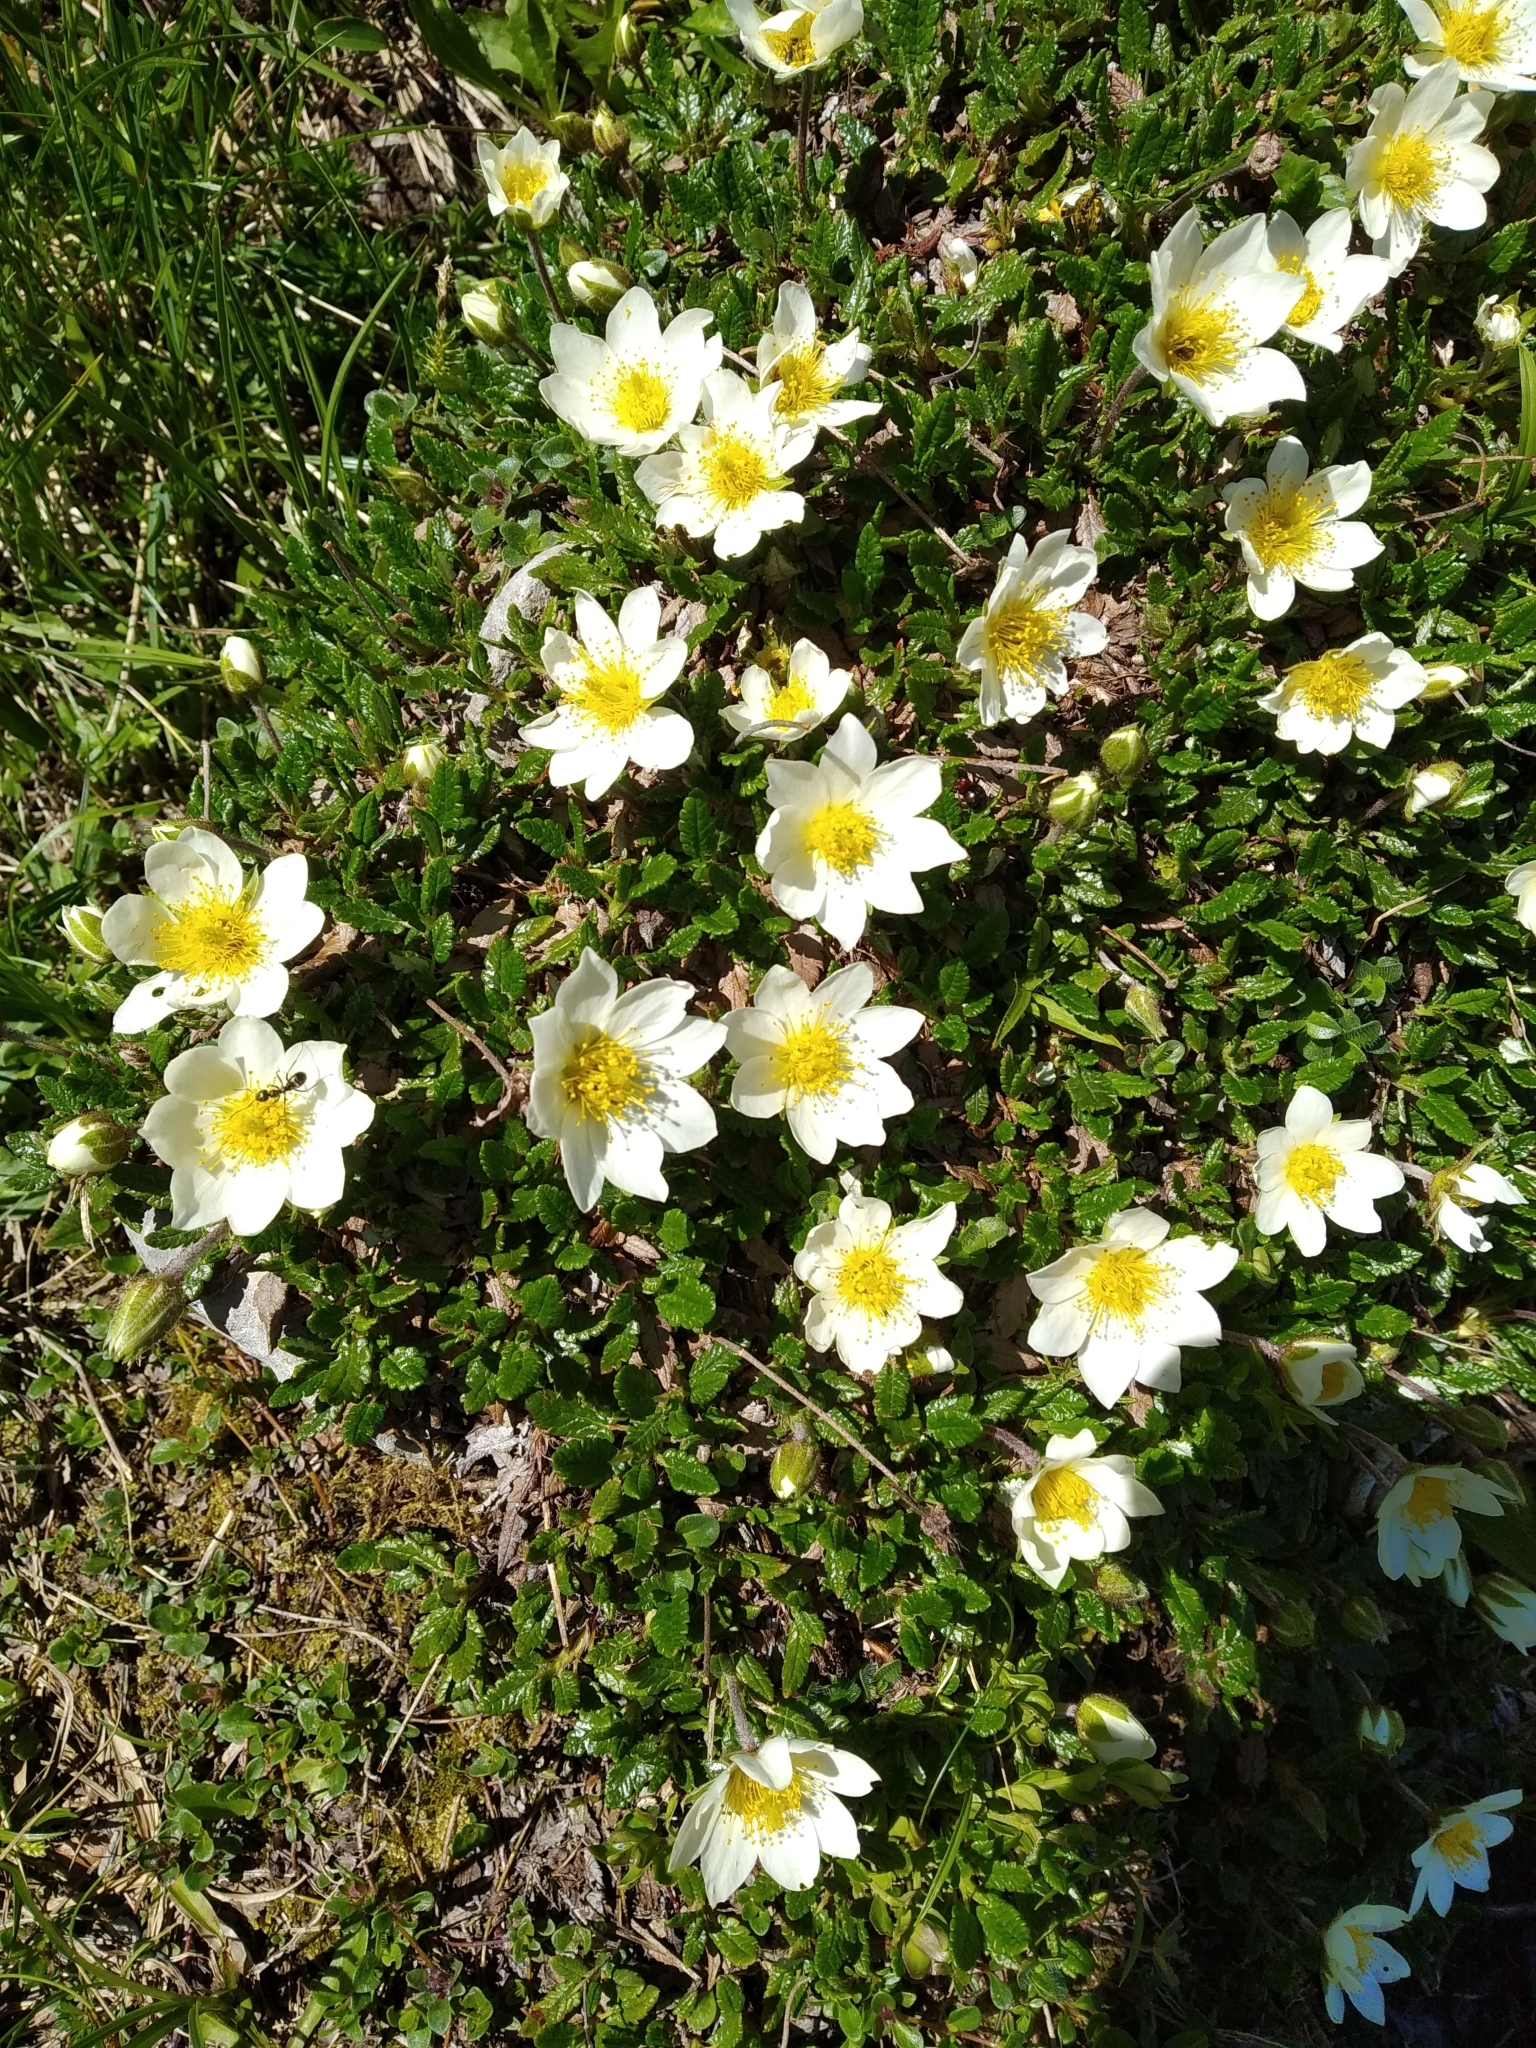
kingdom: Plantae
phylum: Tracheophyta
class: Magnoliopsida
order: Rosales
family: Rosaceae
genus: Dryas
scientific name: Dryas octopetala
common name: Eight-petal mountain-avens
